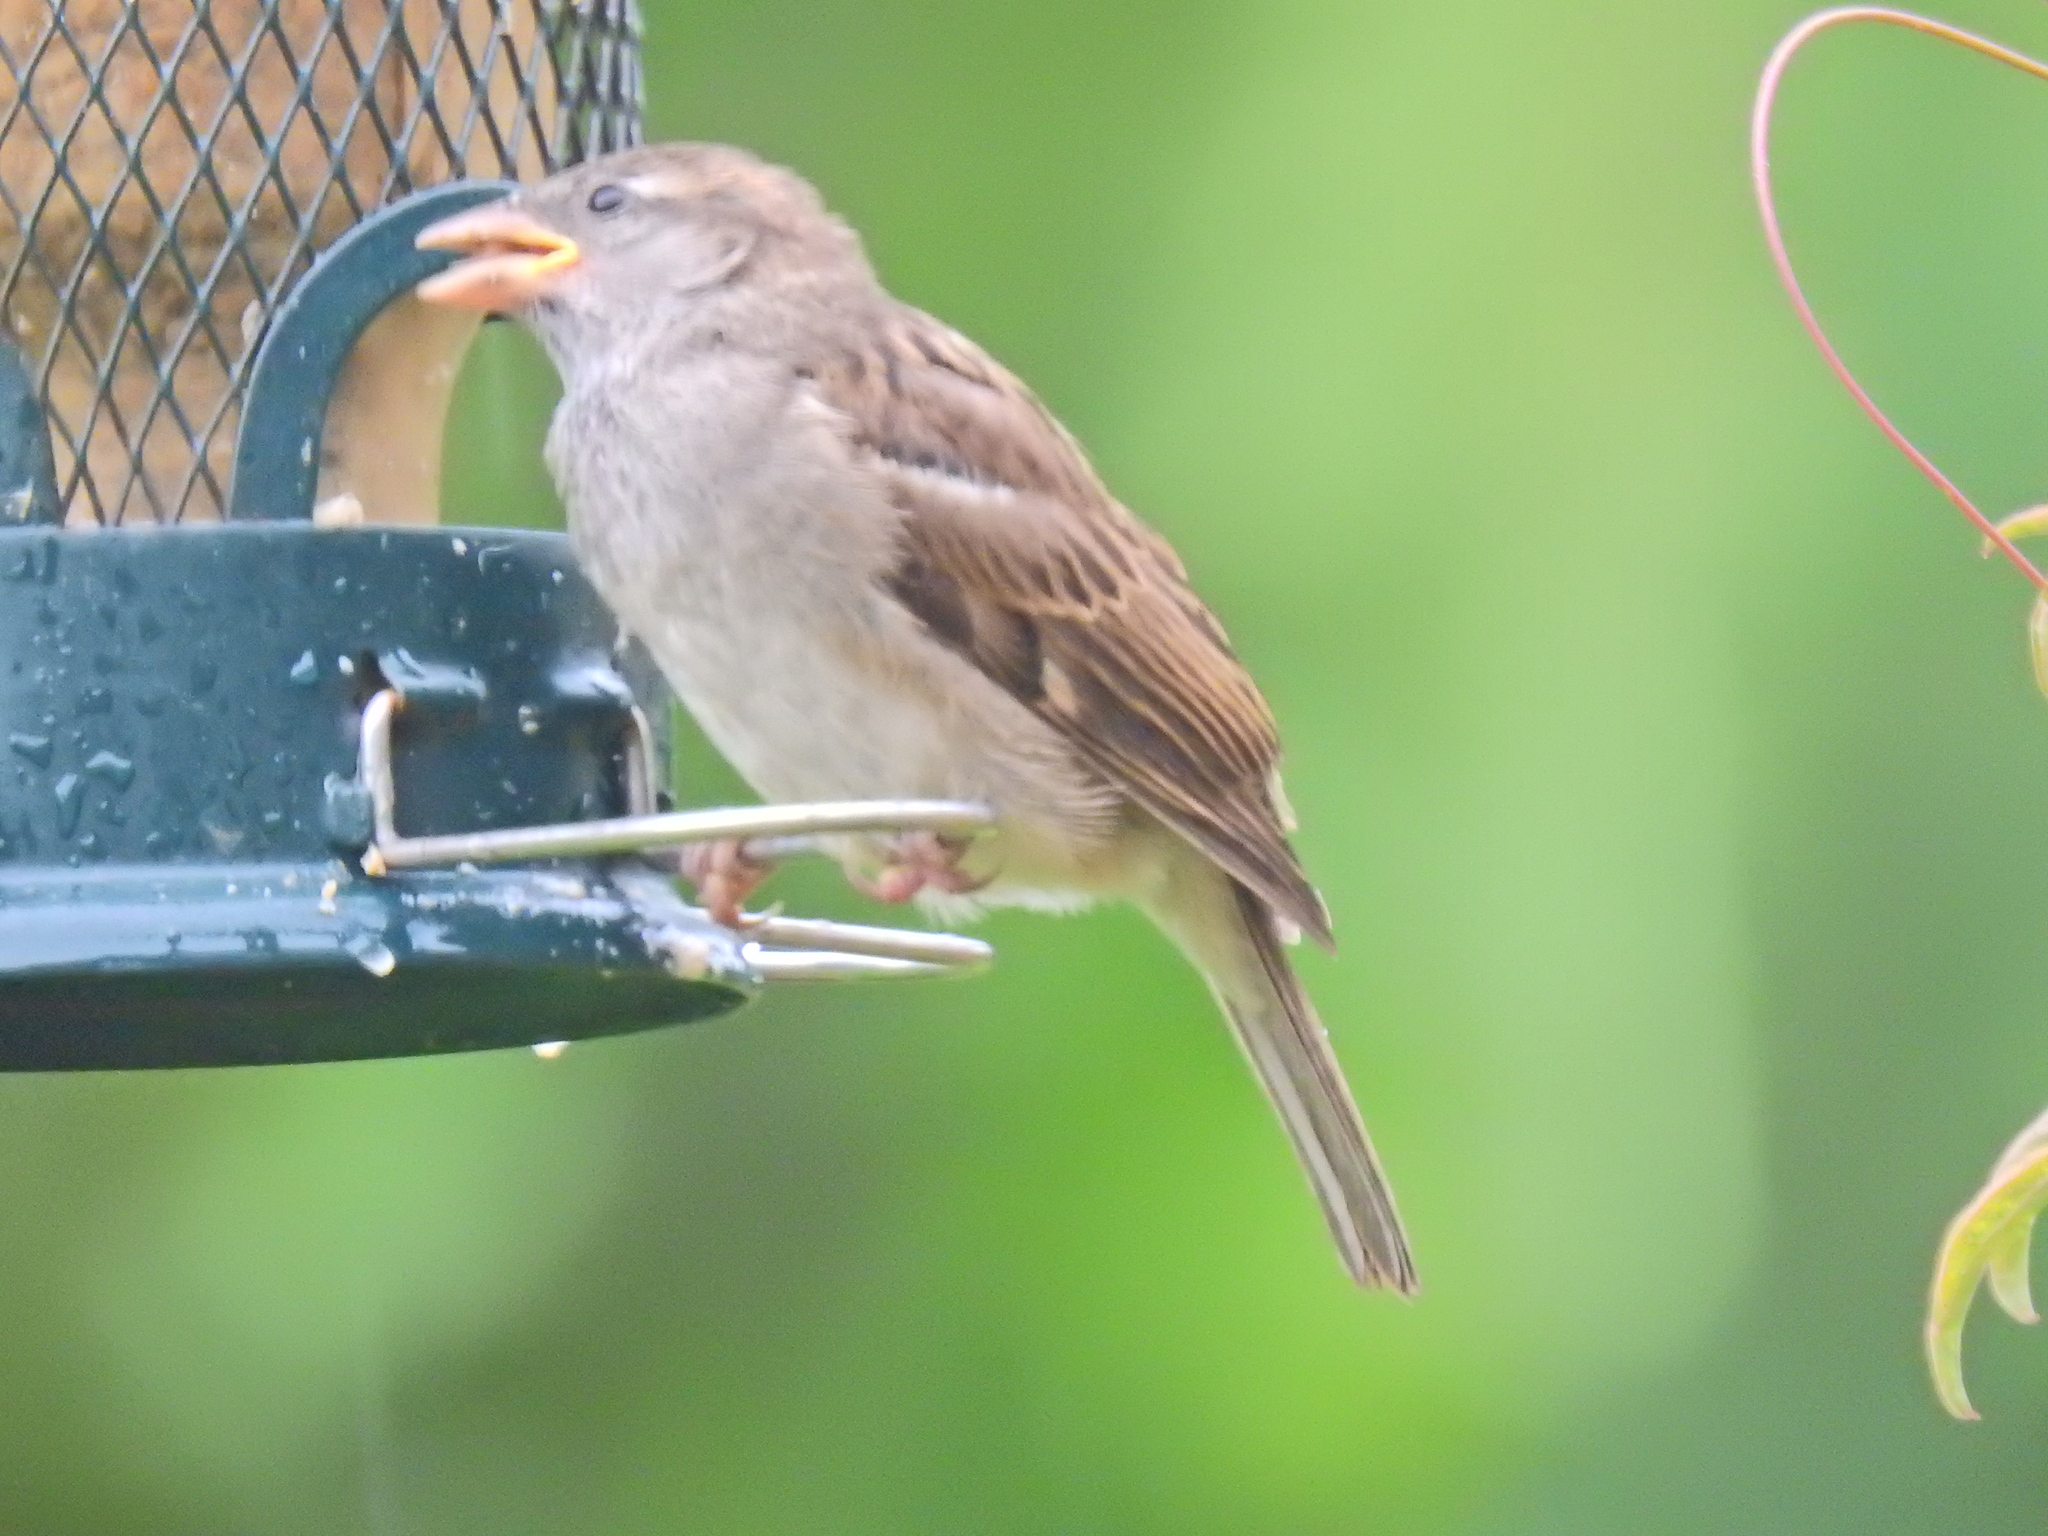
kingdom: Animalia
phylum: Chordata
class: Aves
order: Passeriformes
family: Passeridae
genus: Passer
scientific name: Passer domesticus
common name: House sparrow
